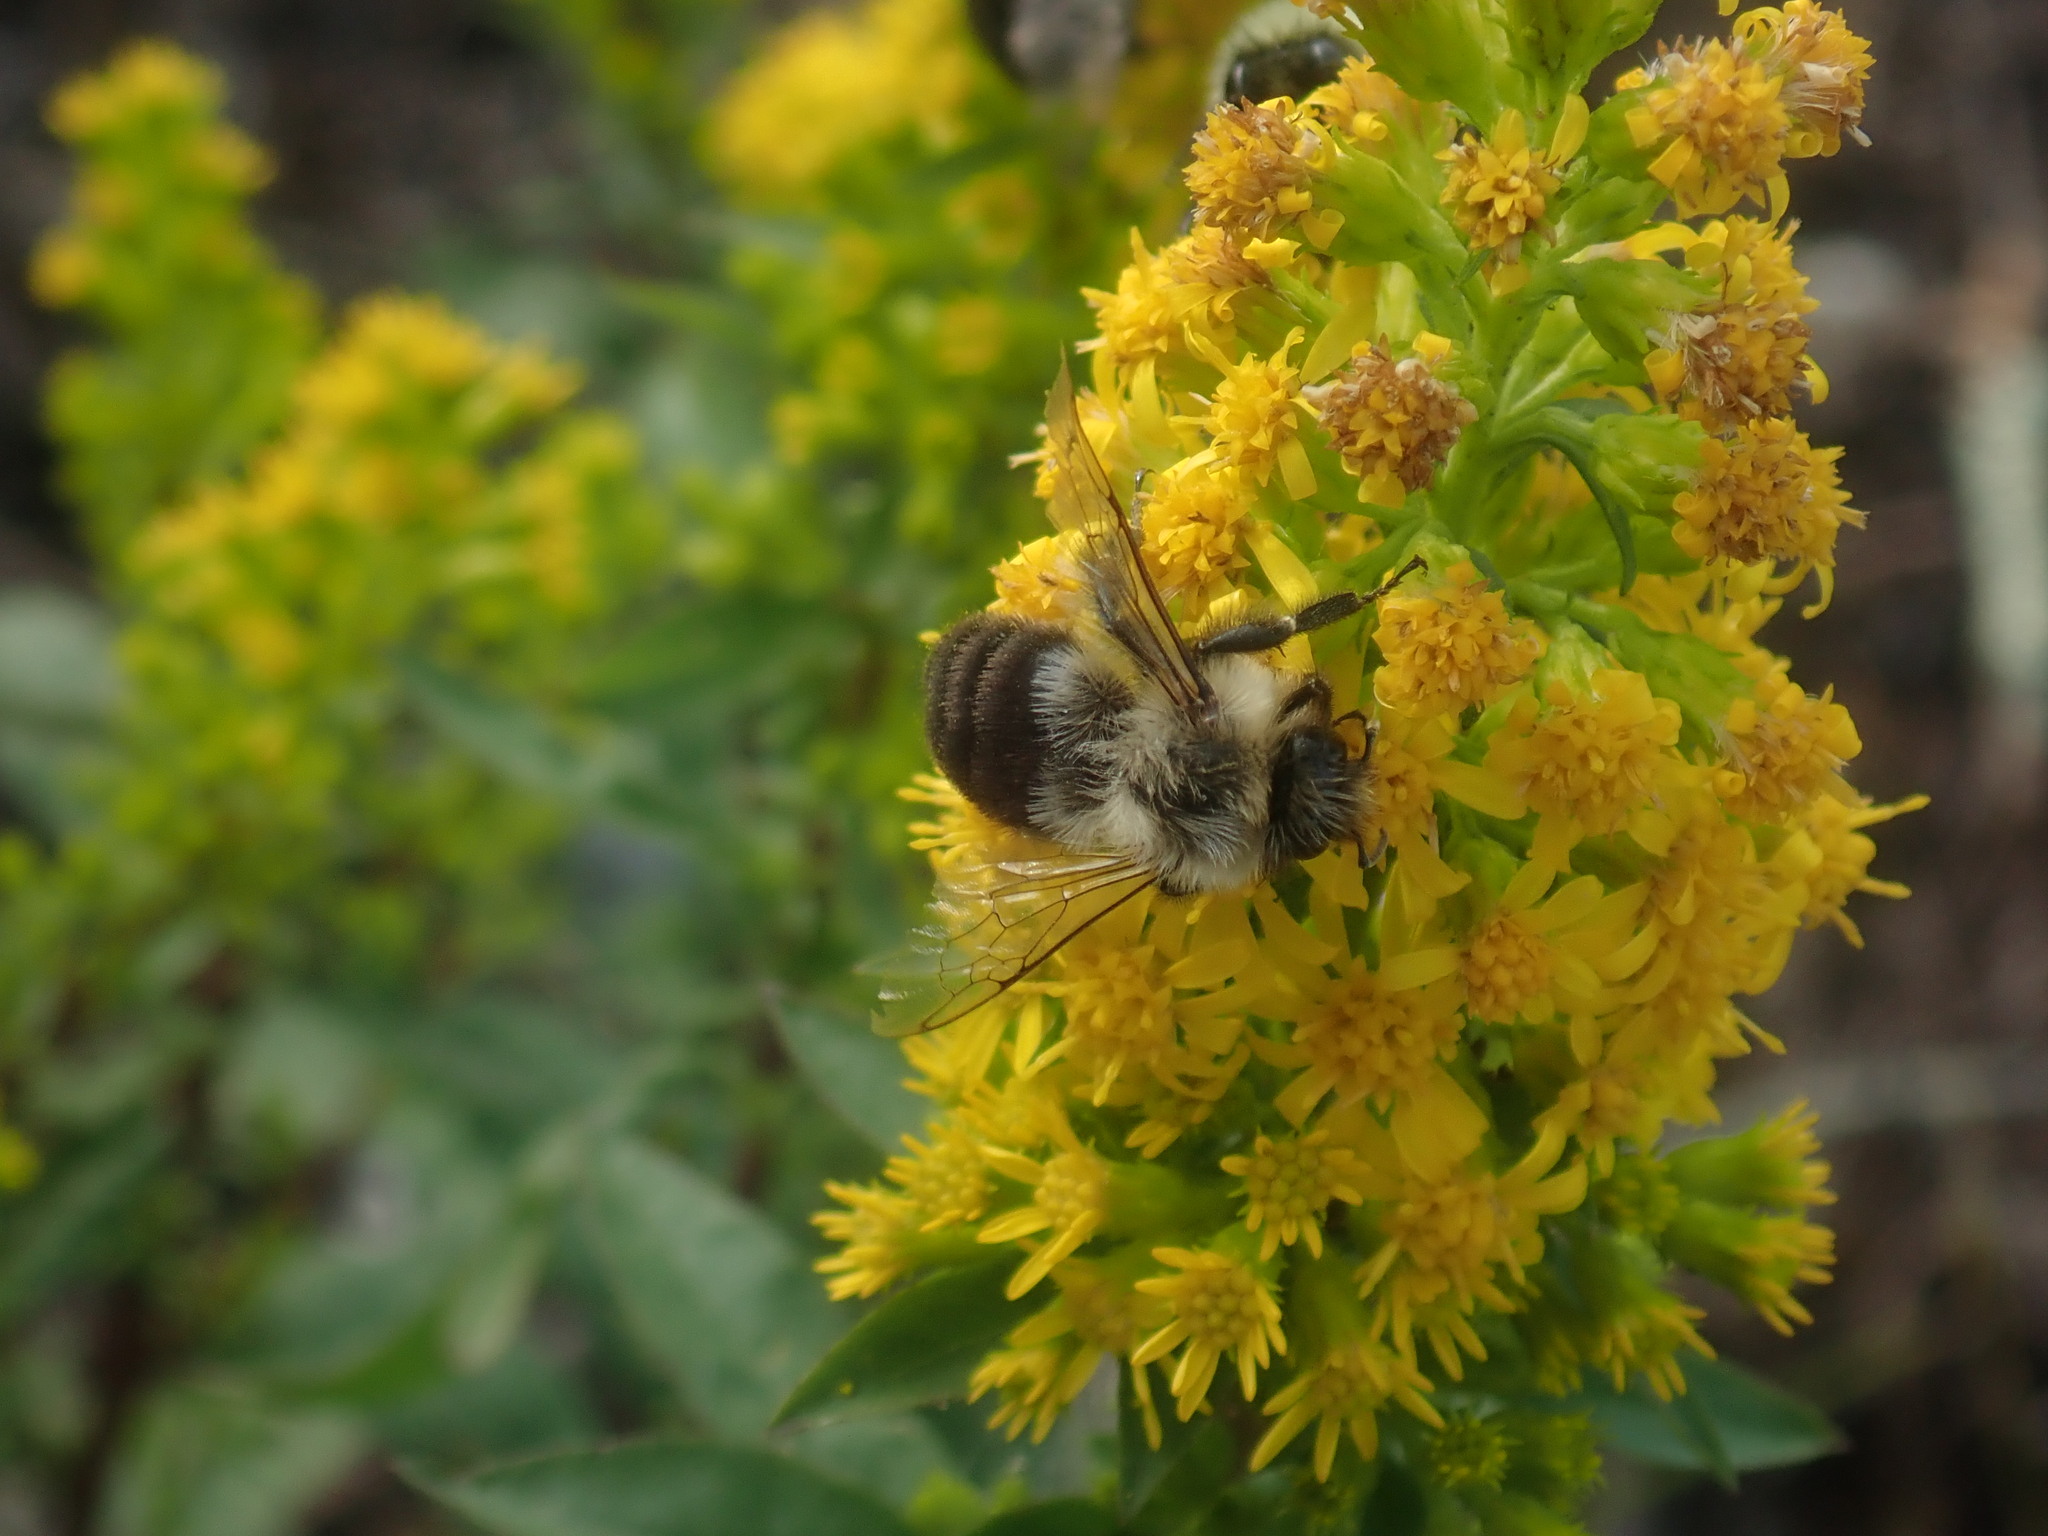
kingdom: Animalia
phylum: Arthropoda
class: Insecta
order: Hymenoptera
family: Apidae
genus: Bombus
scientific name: Bombus impatiens
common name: Common eastern bumble bee
